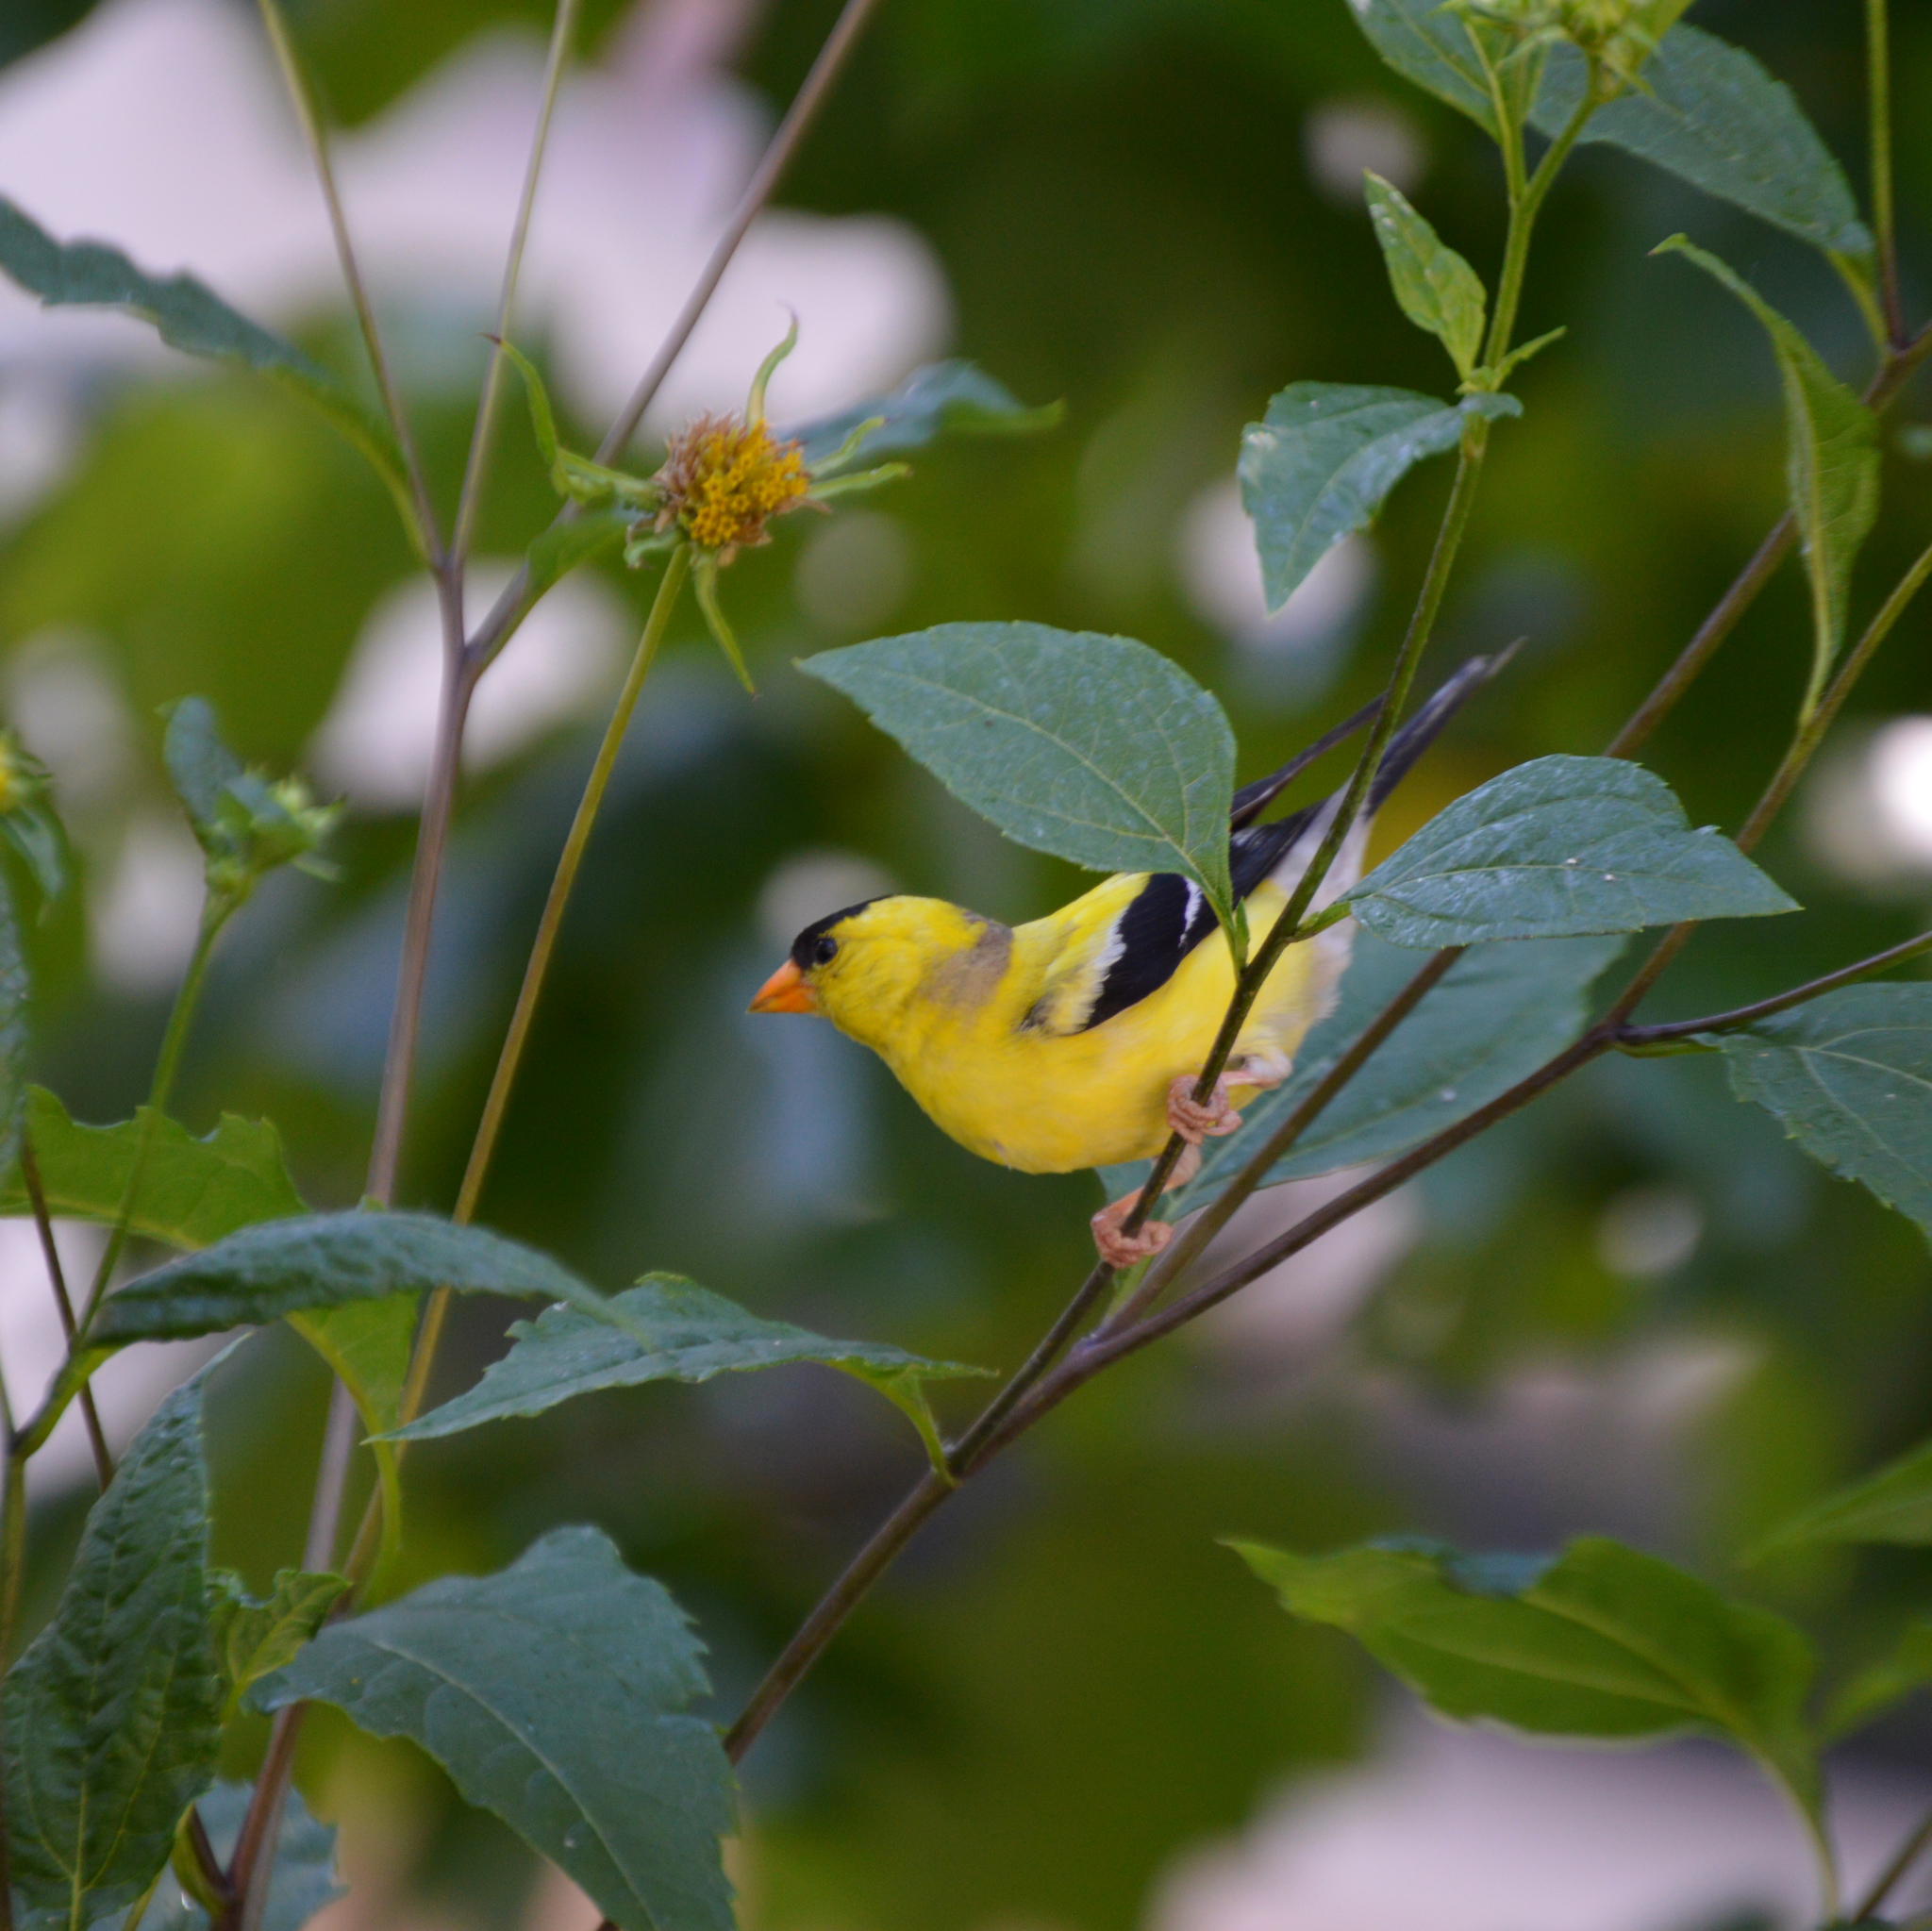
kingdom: Animalia
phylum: Chordata
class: Aves
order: Passeriformes
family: Fringillidae
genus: Spinus
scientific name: Spinus tristis
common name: American goldfinch
